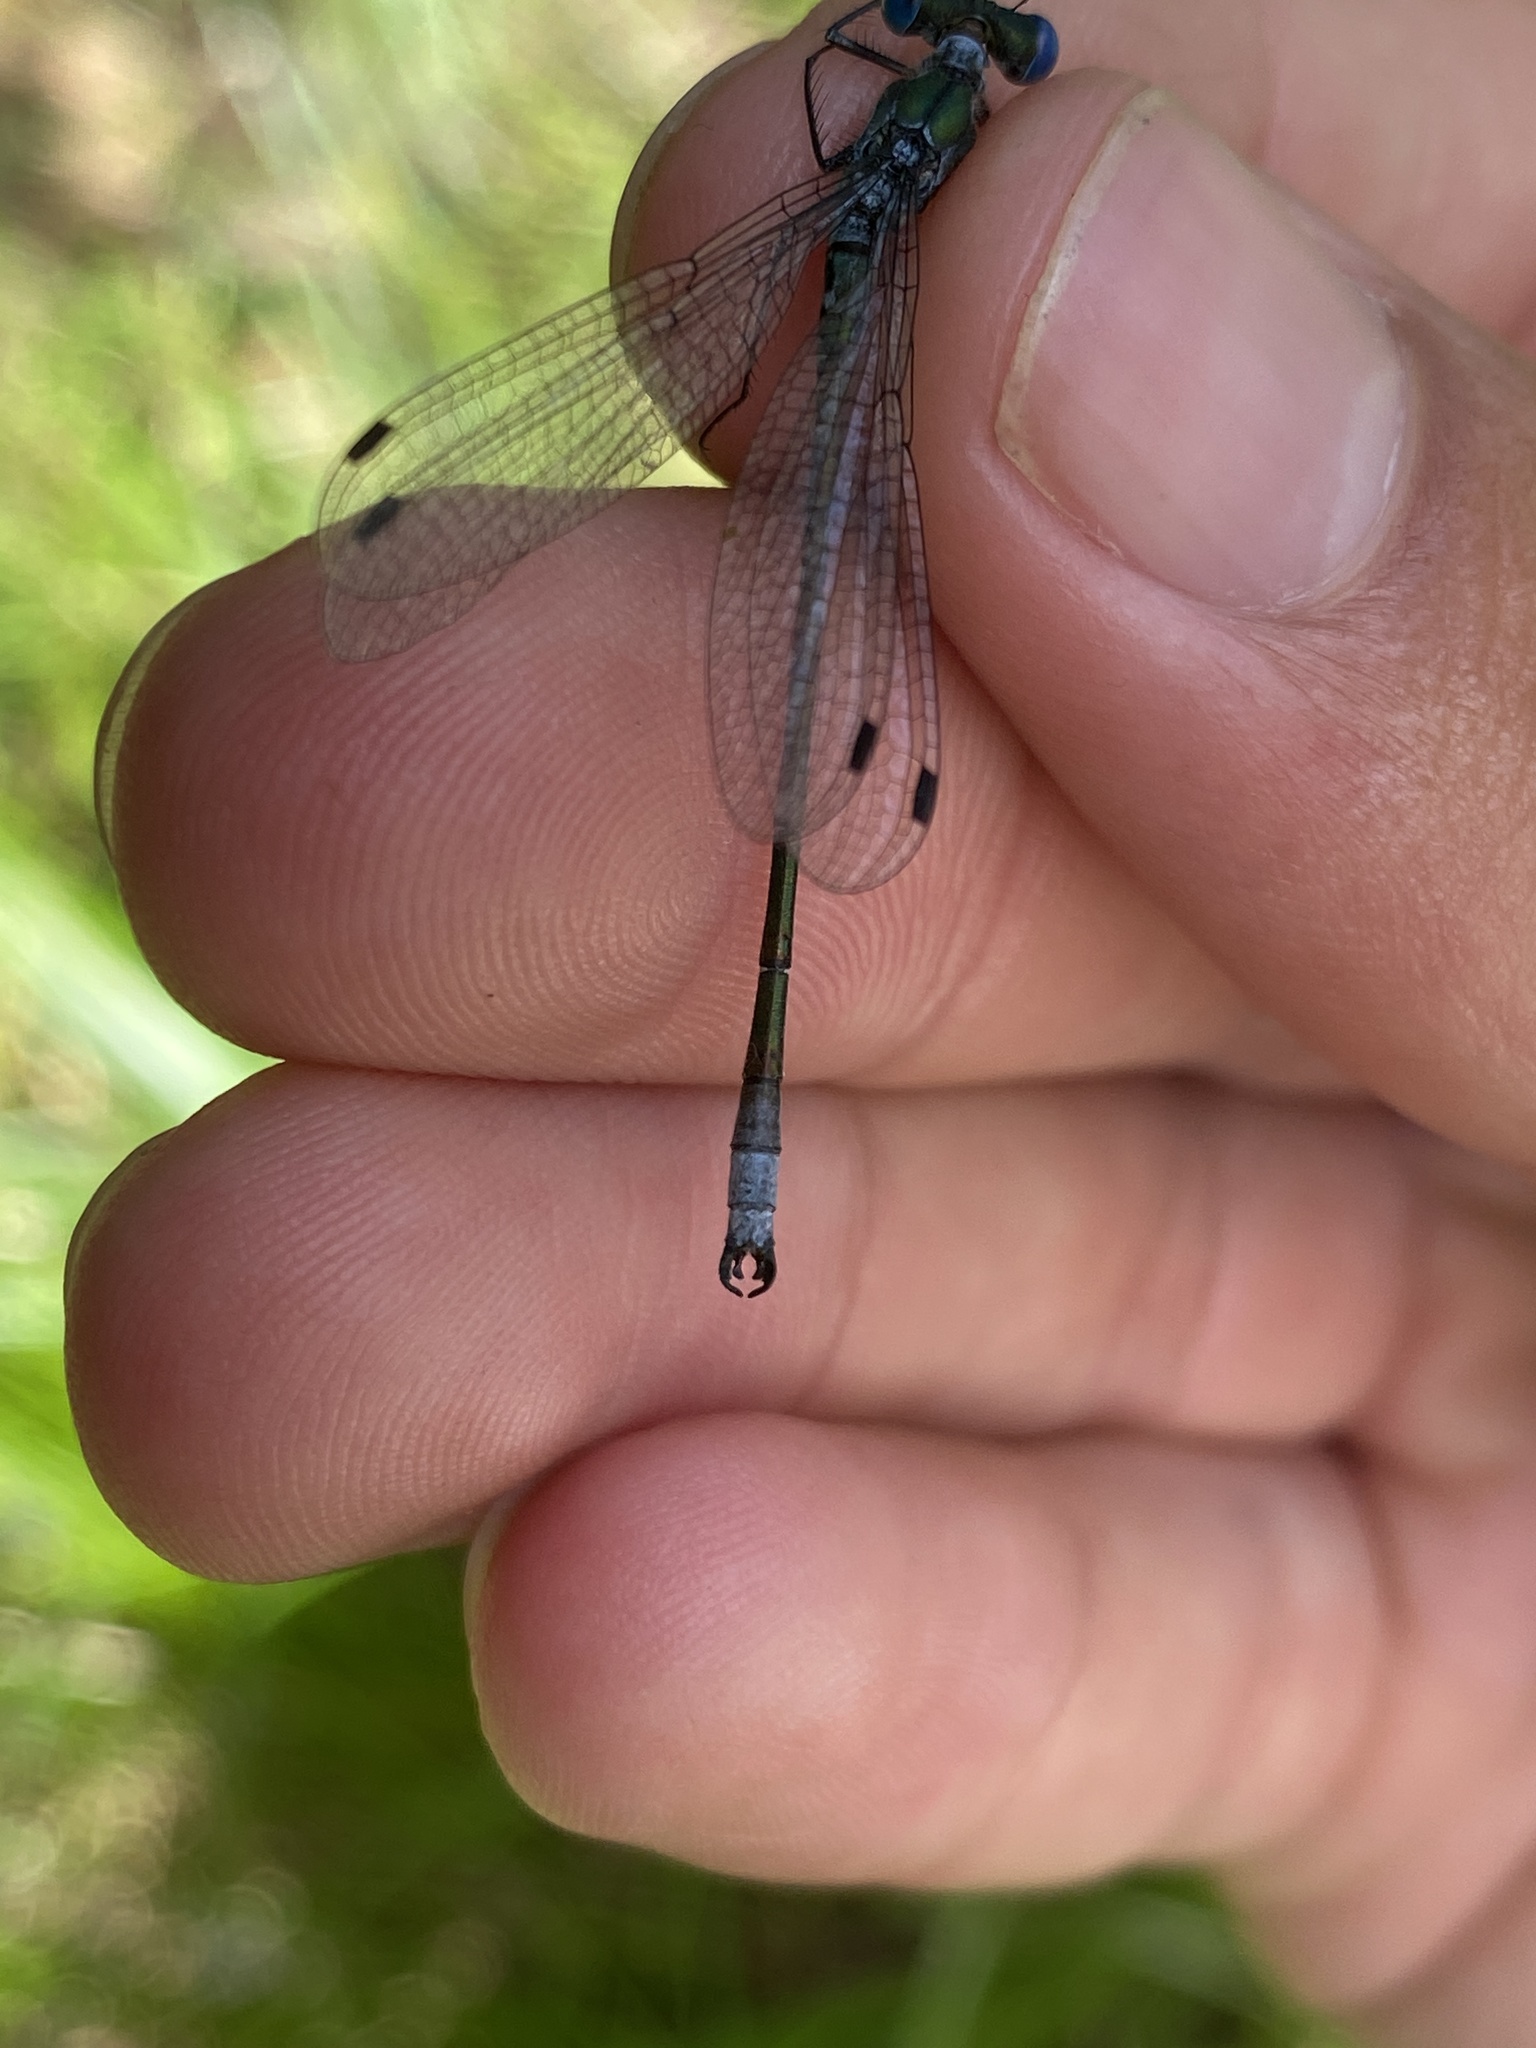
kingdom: Animalia
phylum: Arthropoda
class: Insecta
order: Odonata
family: Lestidae
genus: Lestes
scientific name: Lestes dryas
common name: Scarce emerald damselfly
